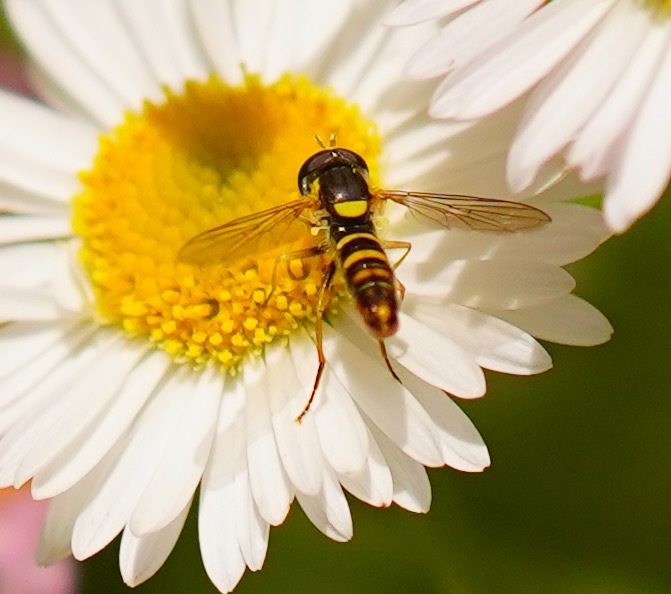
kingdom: Animalia
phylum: Arthropoda
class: Insecta
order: Diptera
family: Syrphidae
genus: Sphaerophoria
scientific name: Sphaerophoria sulphuripes
